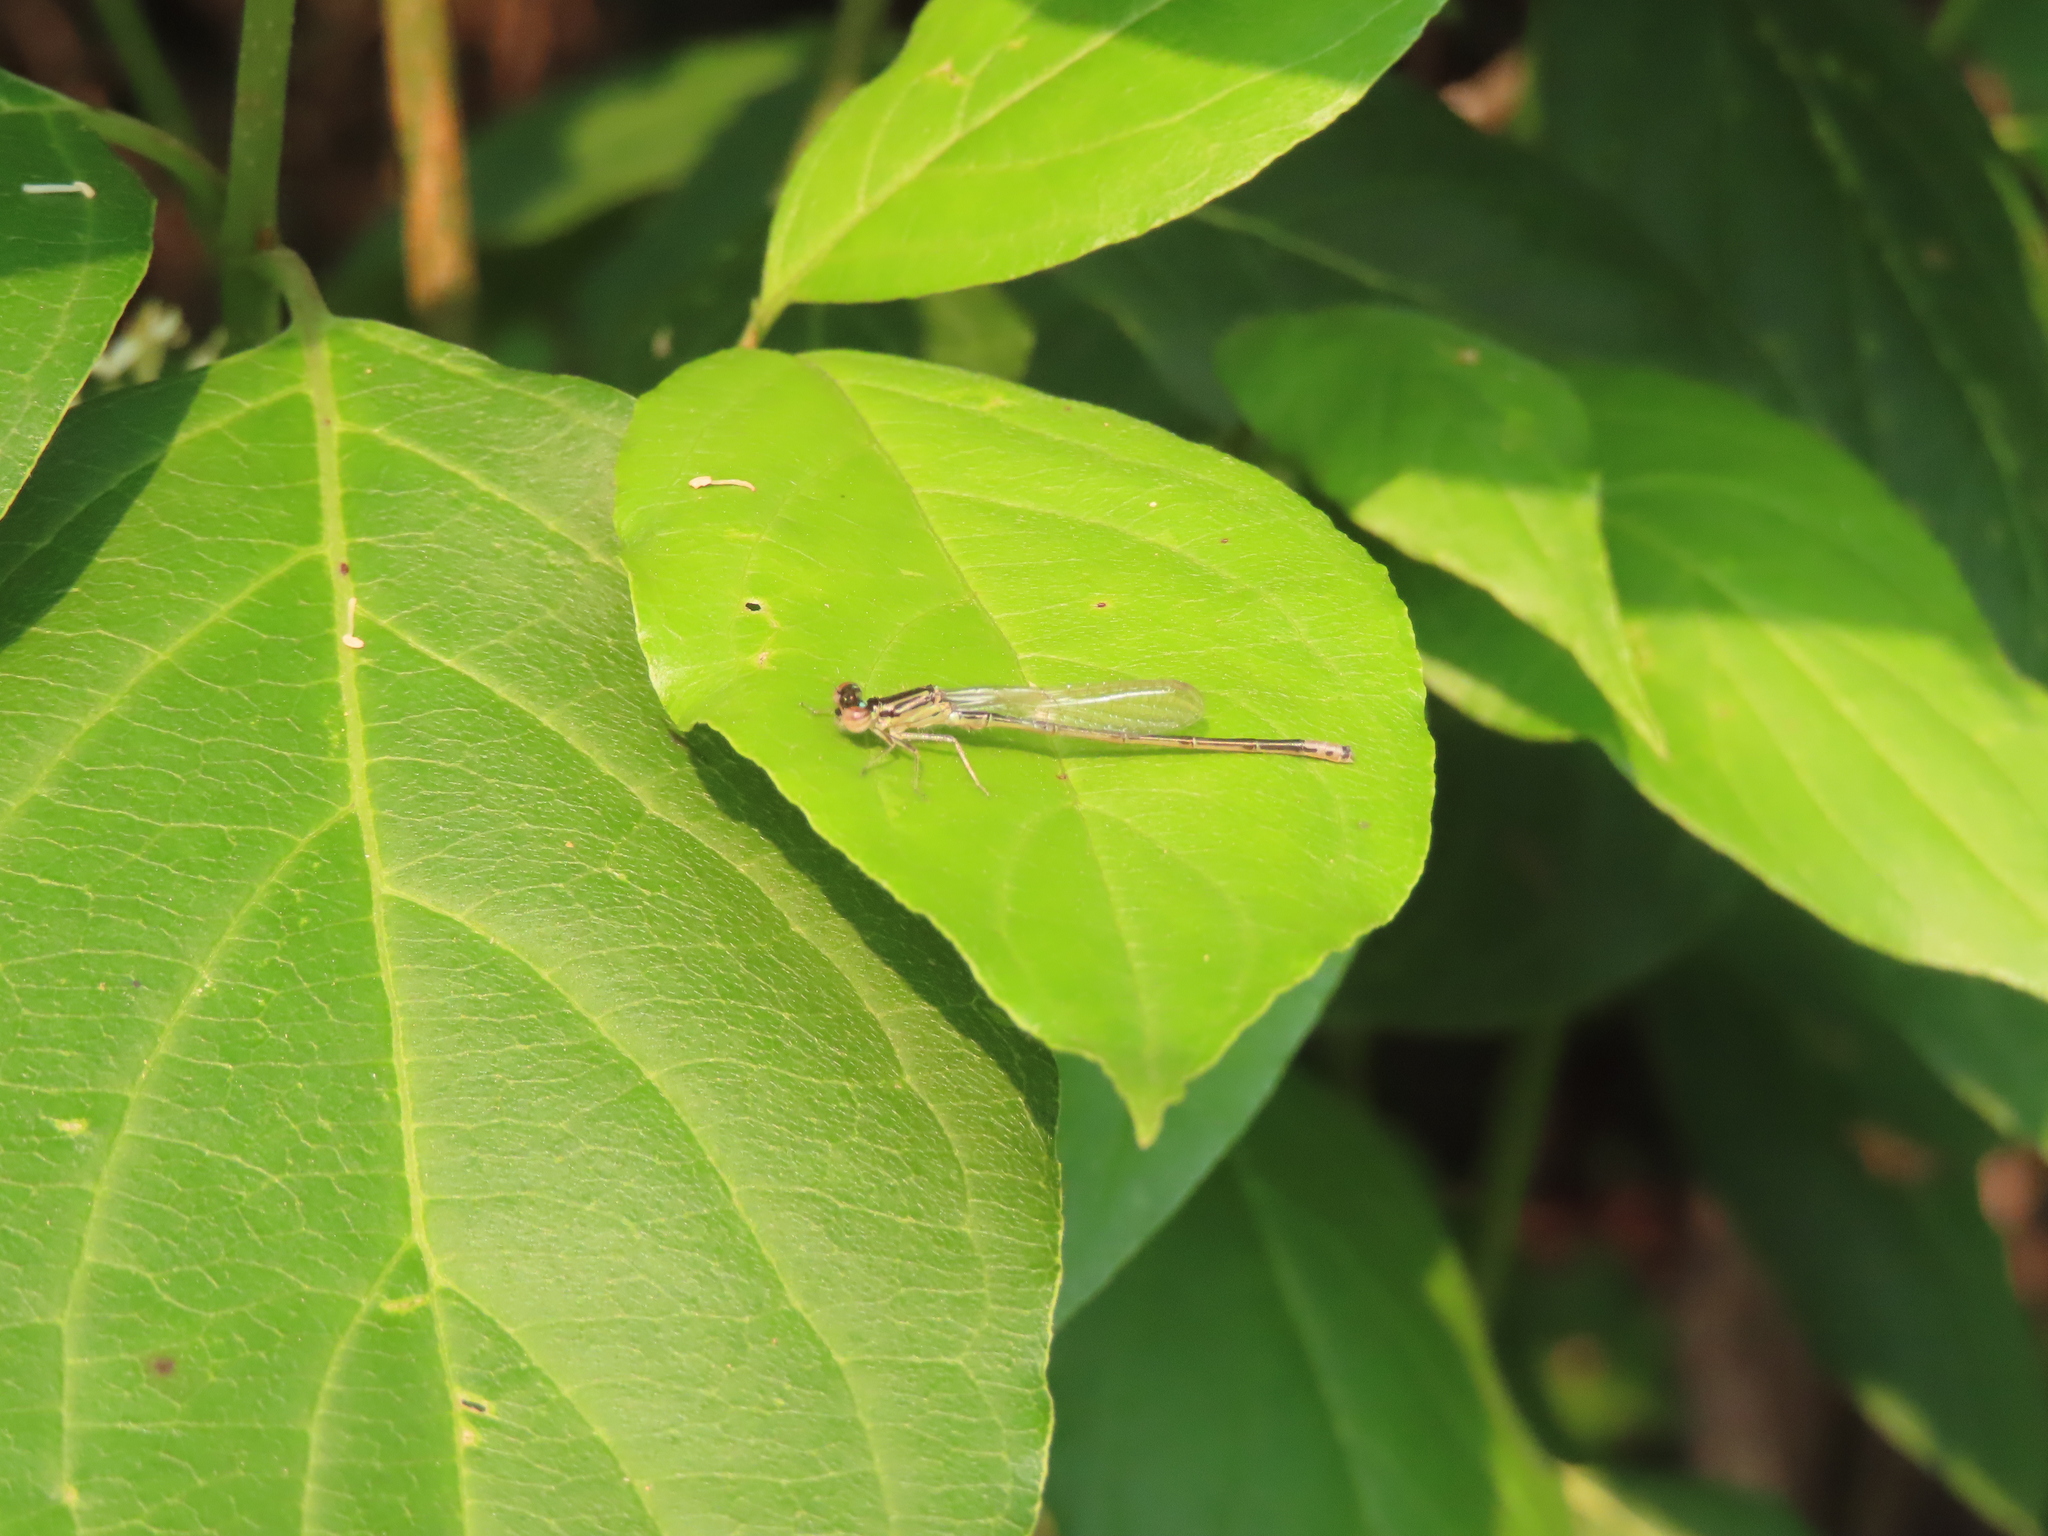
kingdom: Animalia
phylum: Arthropoda
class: Insecta
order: Odonata
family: Coenagrionidae
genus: Ischnura
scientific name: Ischnura verticalis
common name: Eastern forktail
